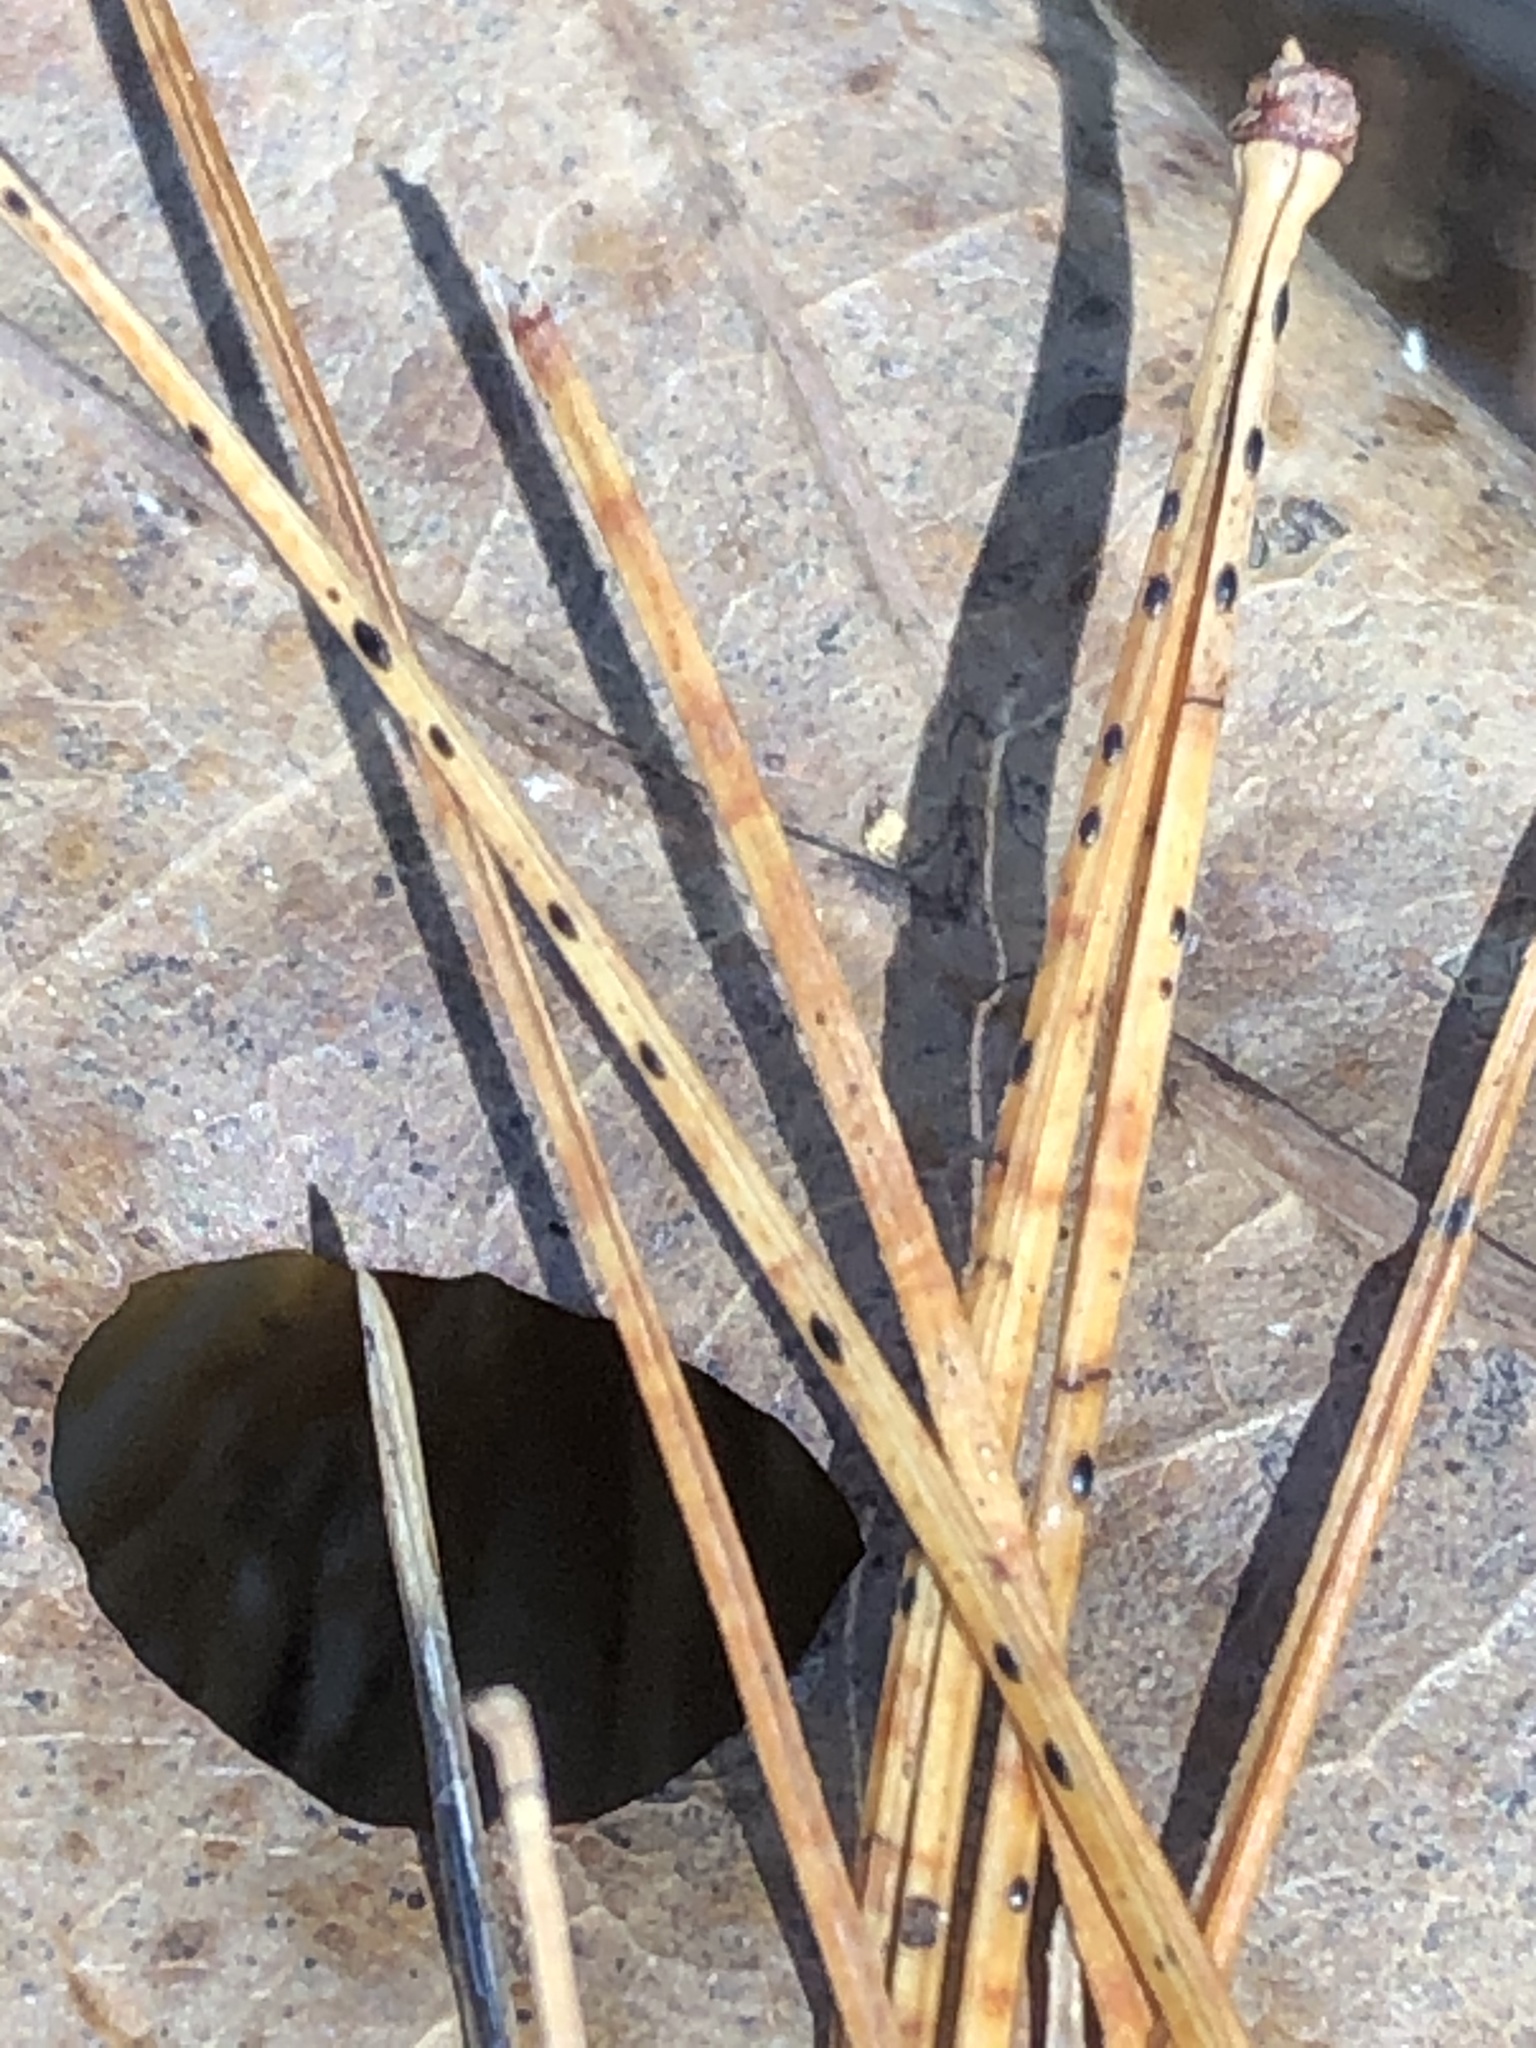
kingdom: Fungi
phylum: Ascomycota
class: Dothideomycetes
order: Mycosphaerellales
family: Mycosphaerellaceae
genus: Dothistroma
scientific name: Dothistroma septosporum
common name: Needle blight
